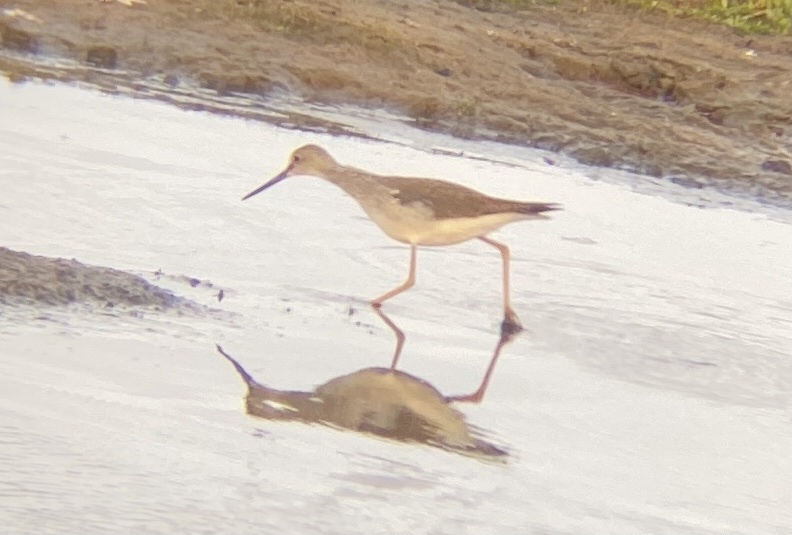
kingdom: Animalia
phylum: Chordata
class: Aves
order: Charadriiformes
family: Scolopacidae
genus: Tringa
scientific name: Tringa melanoleuca
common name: Greater yellowlegs
